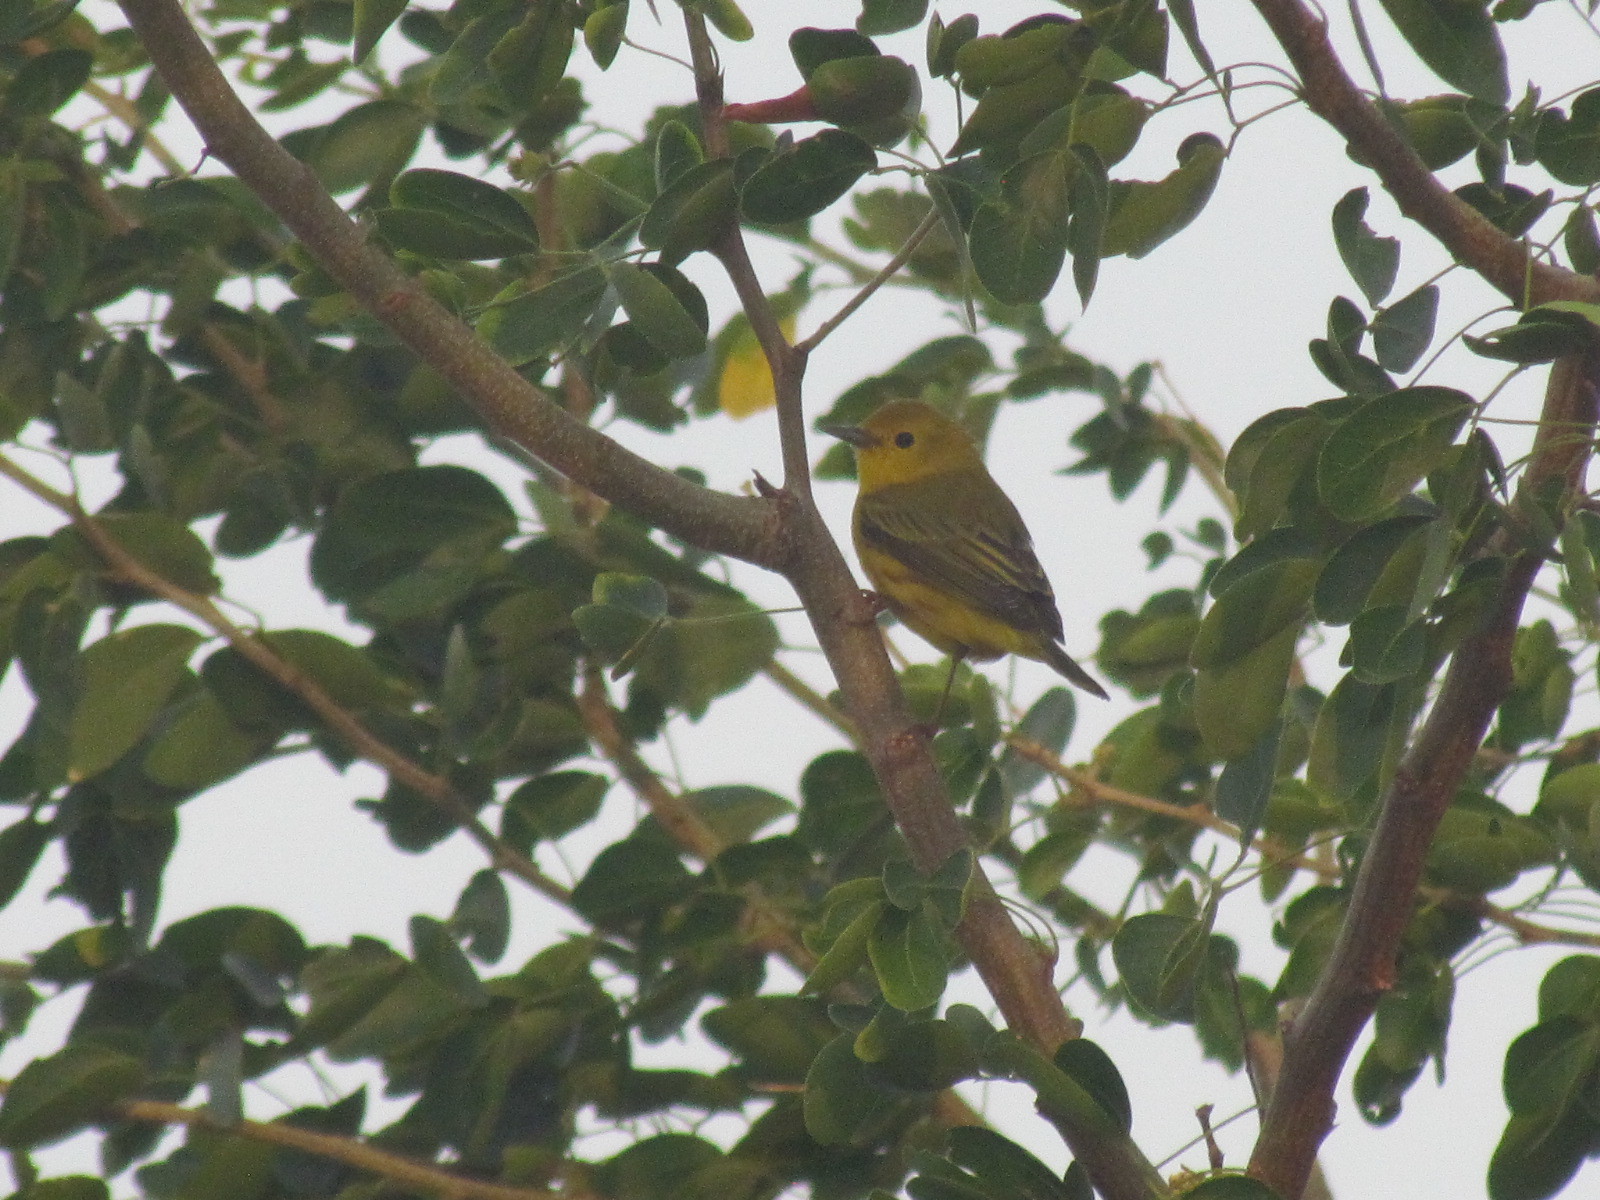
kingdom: Animalia
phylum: Chordata
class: Aves
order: Passeriformes
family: Parulidae
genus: Setophaga
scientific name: Setophaga petechia
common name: Yellow warbler
